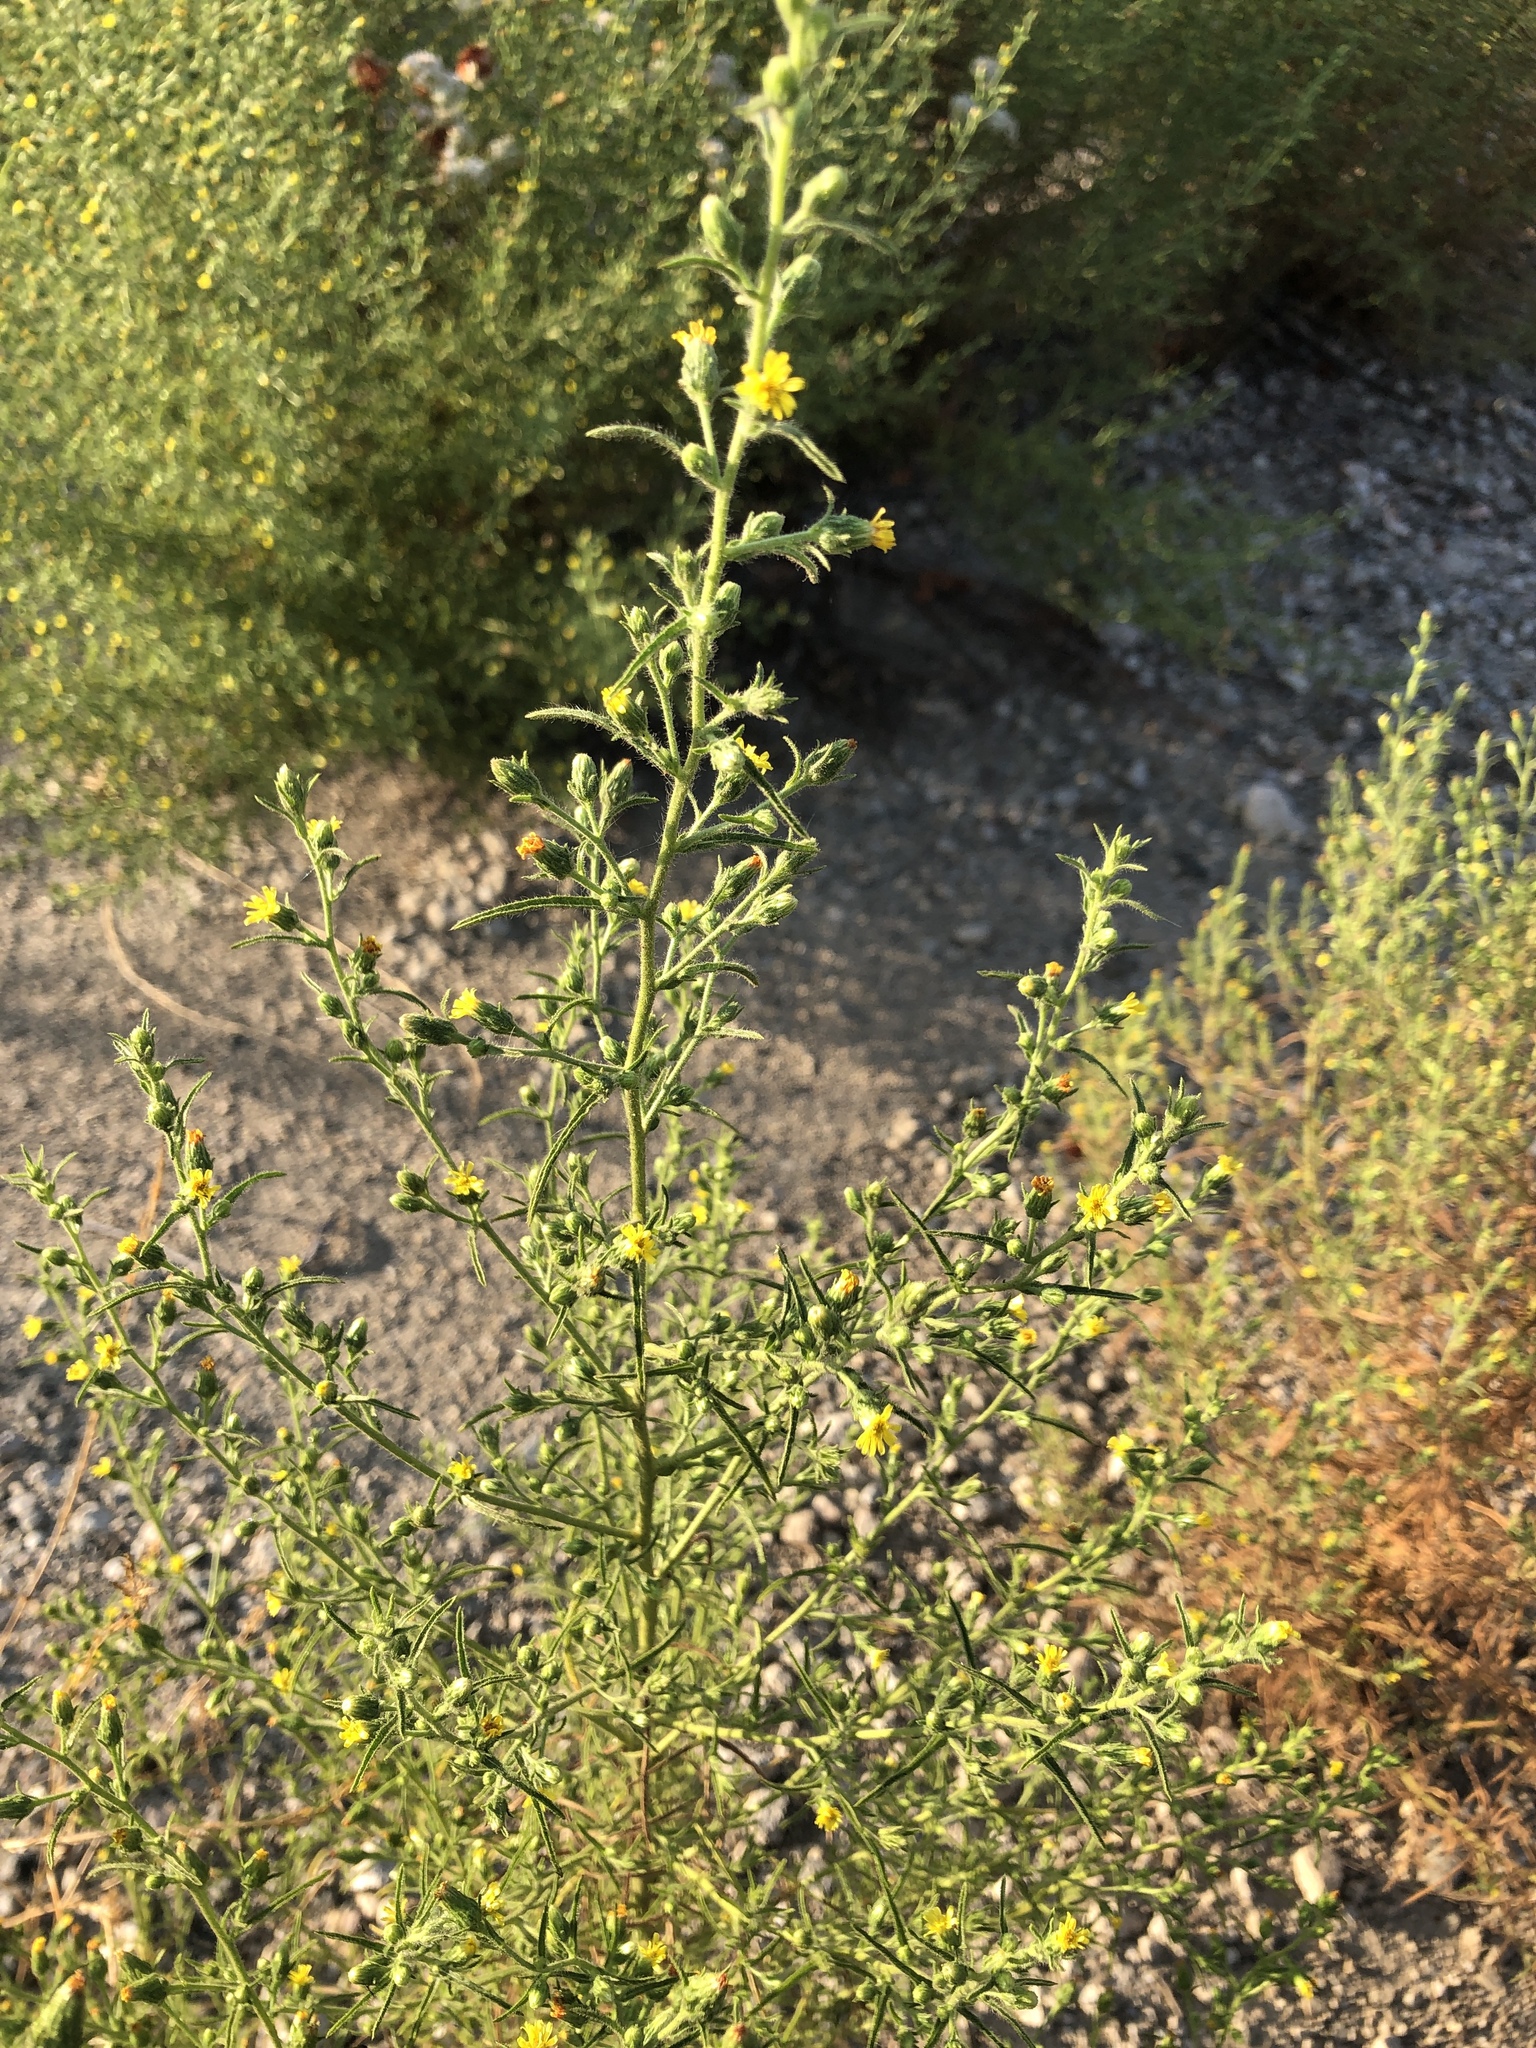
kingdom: Plantae
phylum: Tracheophyta
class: Magnoliopsida
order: Asterales
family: Asteraceae
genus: Dittrichia
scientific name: Dittrichia graveolens
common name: Stinking fleabane
